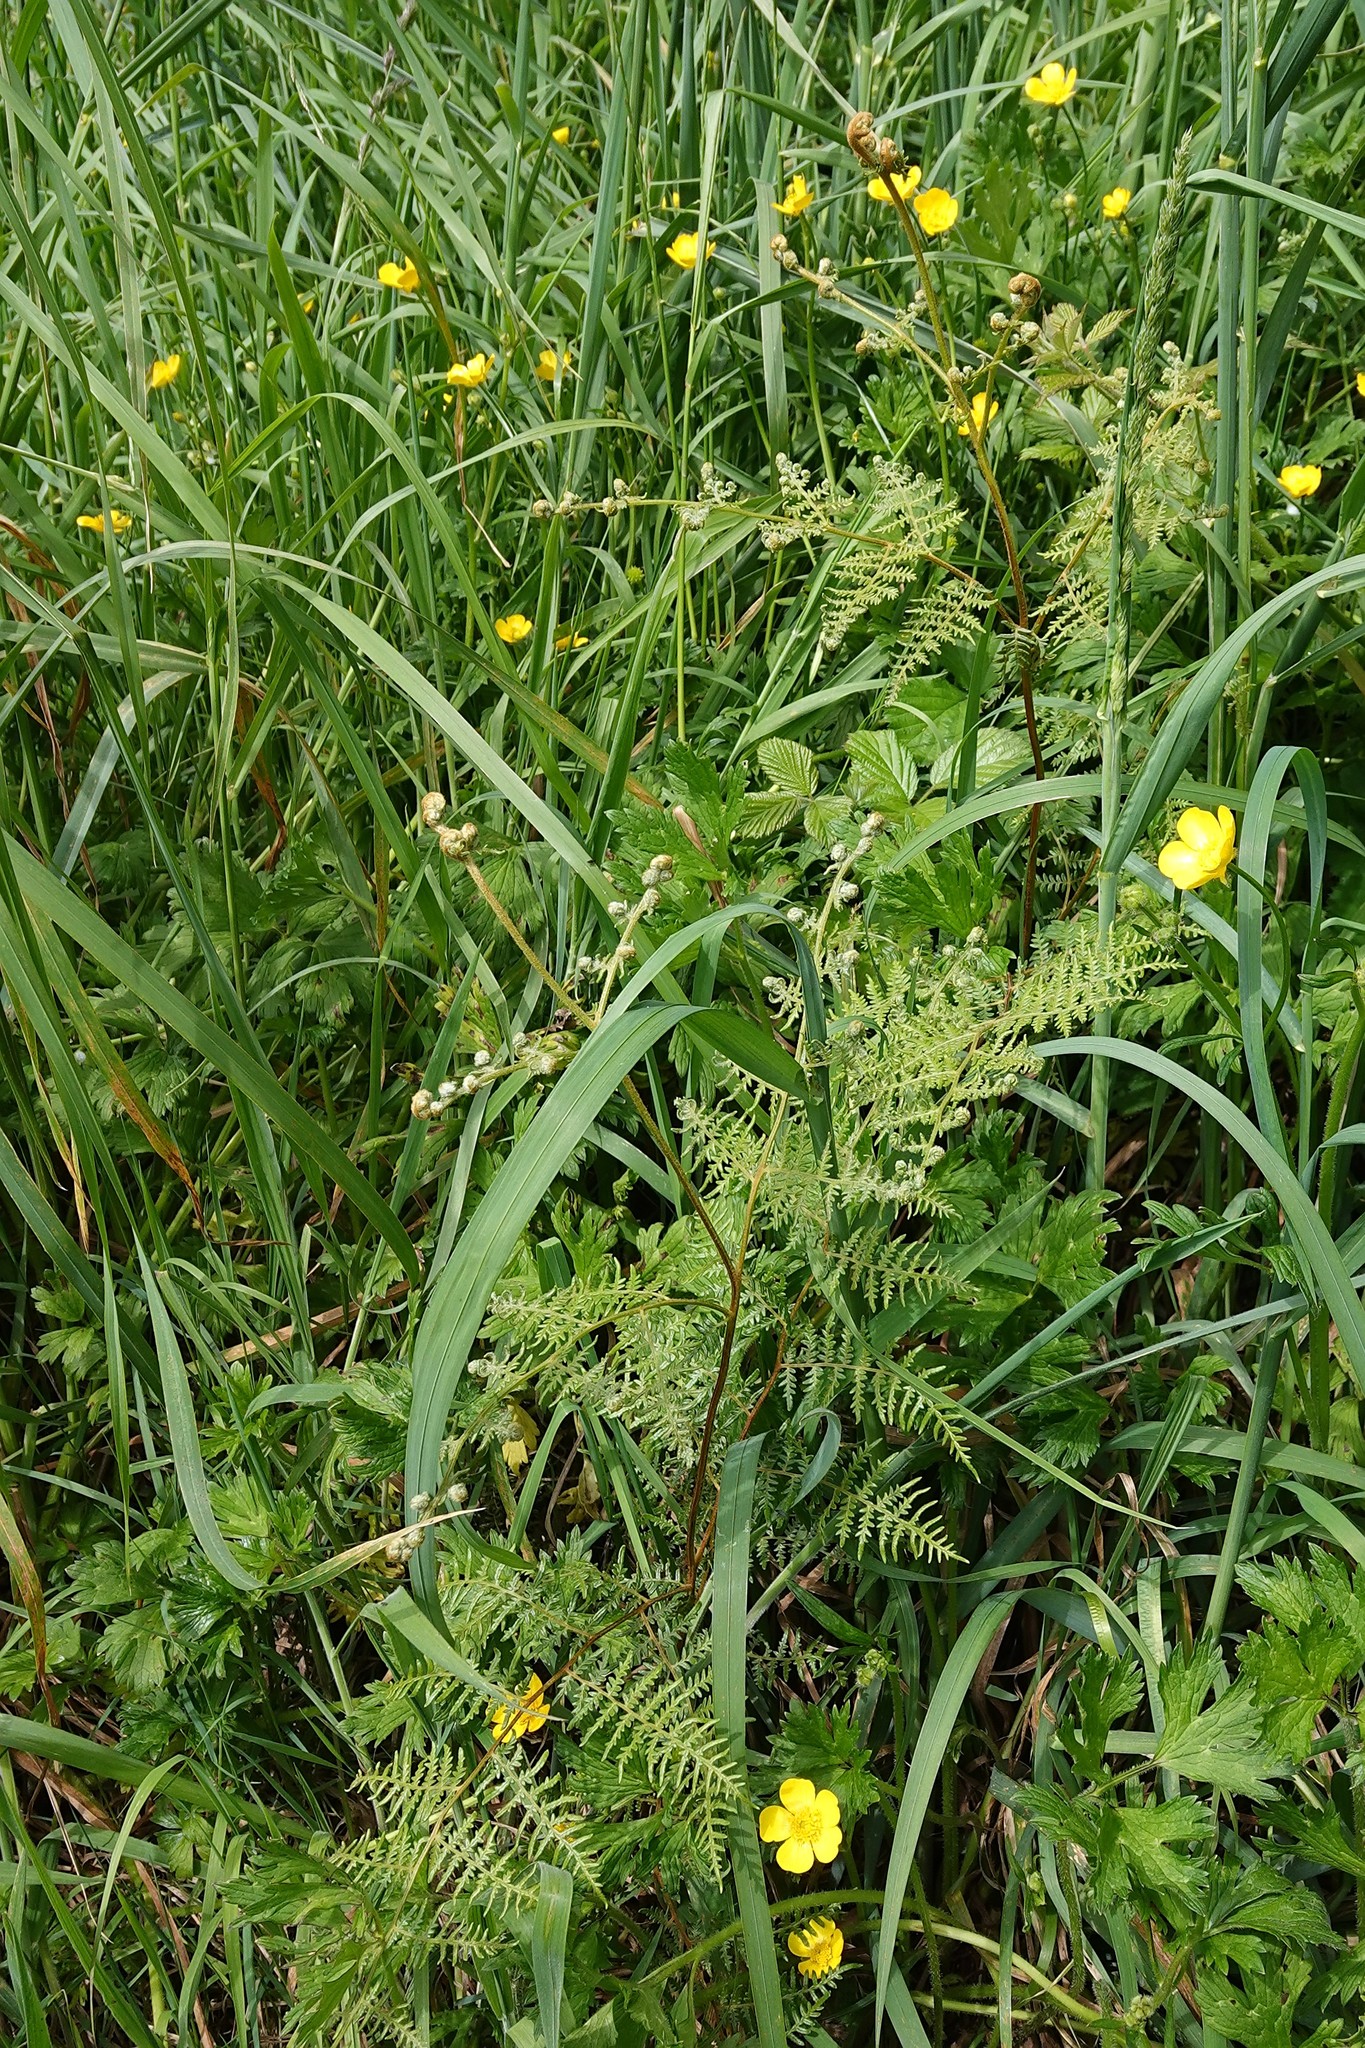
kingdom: Plantae
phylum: Tracheophyta
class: Polypodiopsida
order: Polypodiales
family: Dennstaedtiaceae
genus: Pteridium
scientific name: Pteridium esculentum
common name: Bracken fern
